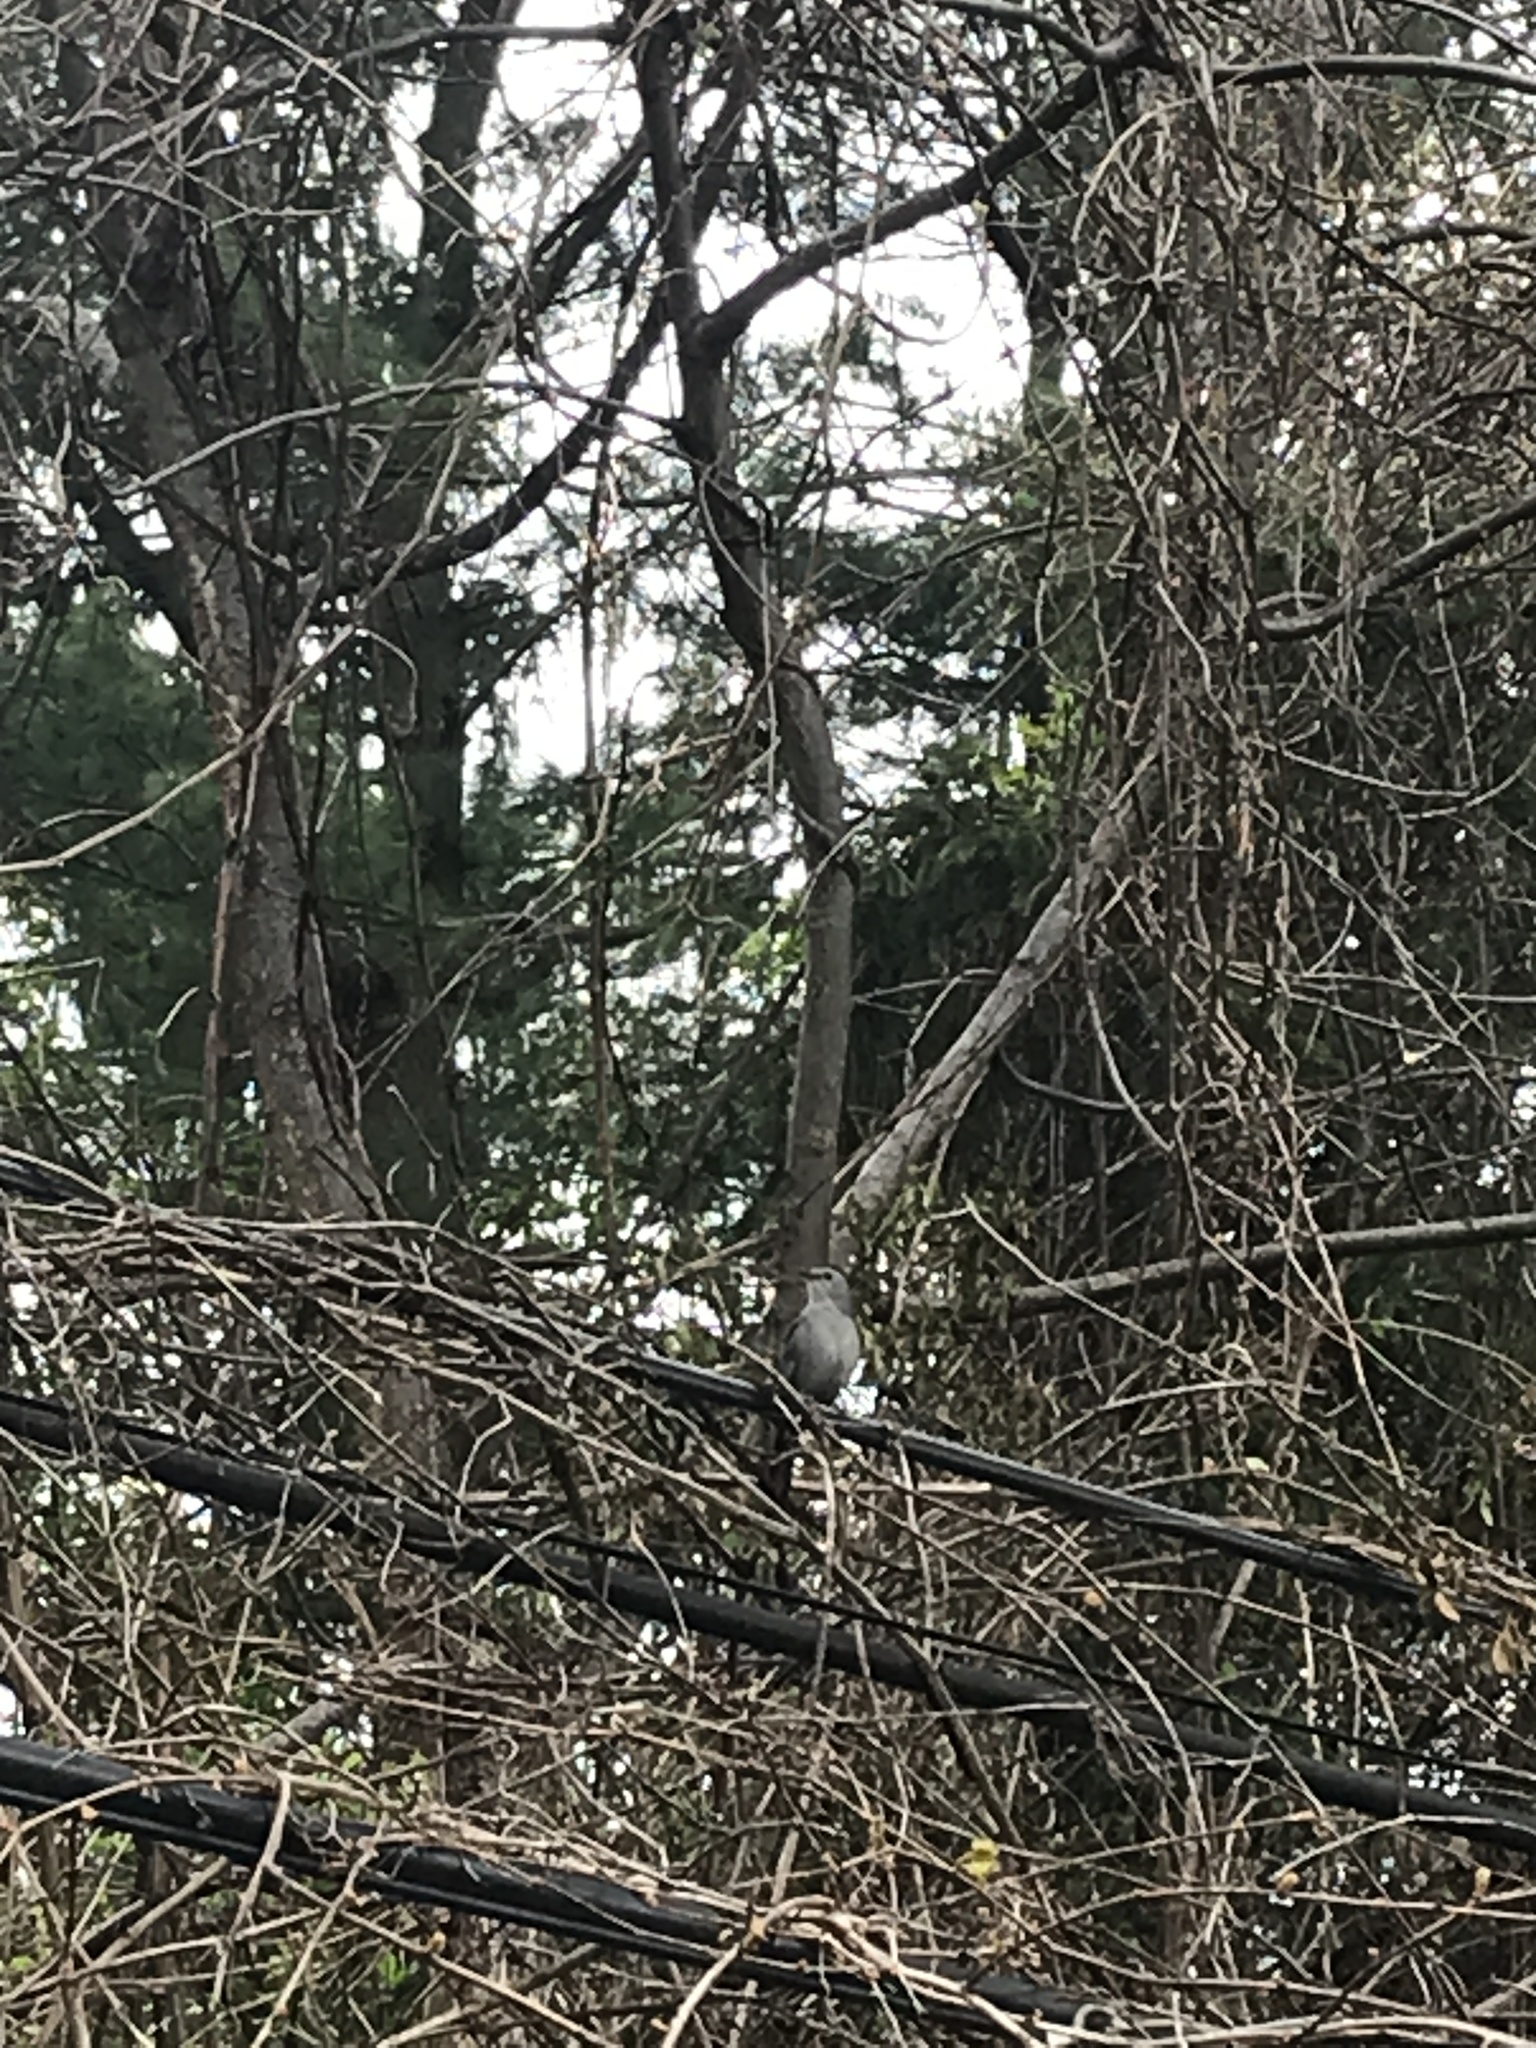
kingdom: Animalia
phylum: Chordata
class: Aves
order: Passeriformes
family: Mimidae
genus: Dumetella
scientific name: Dumetella carolinensis
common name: Gray catbird
